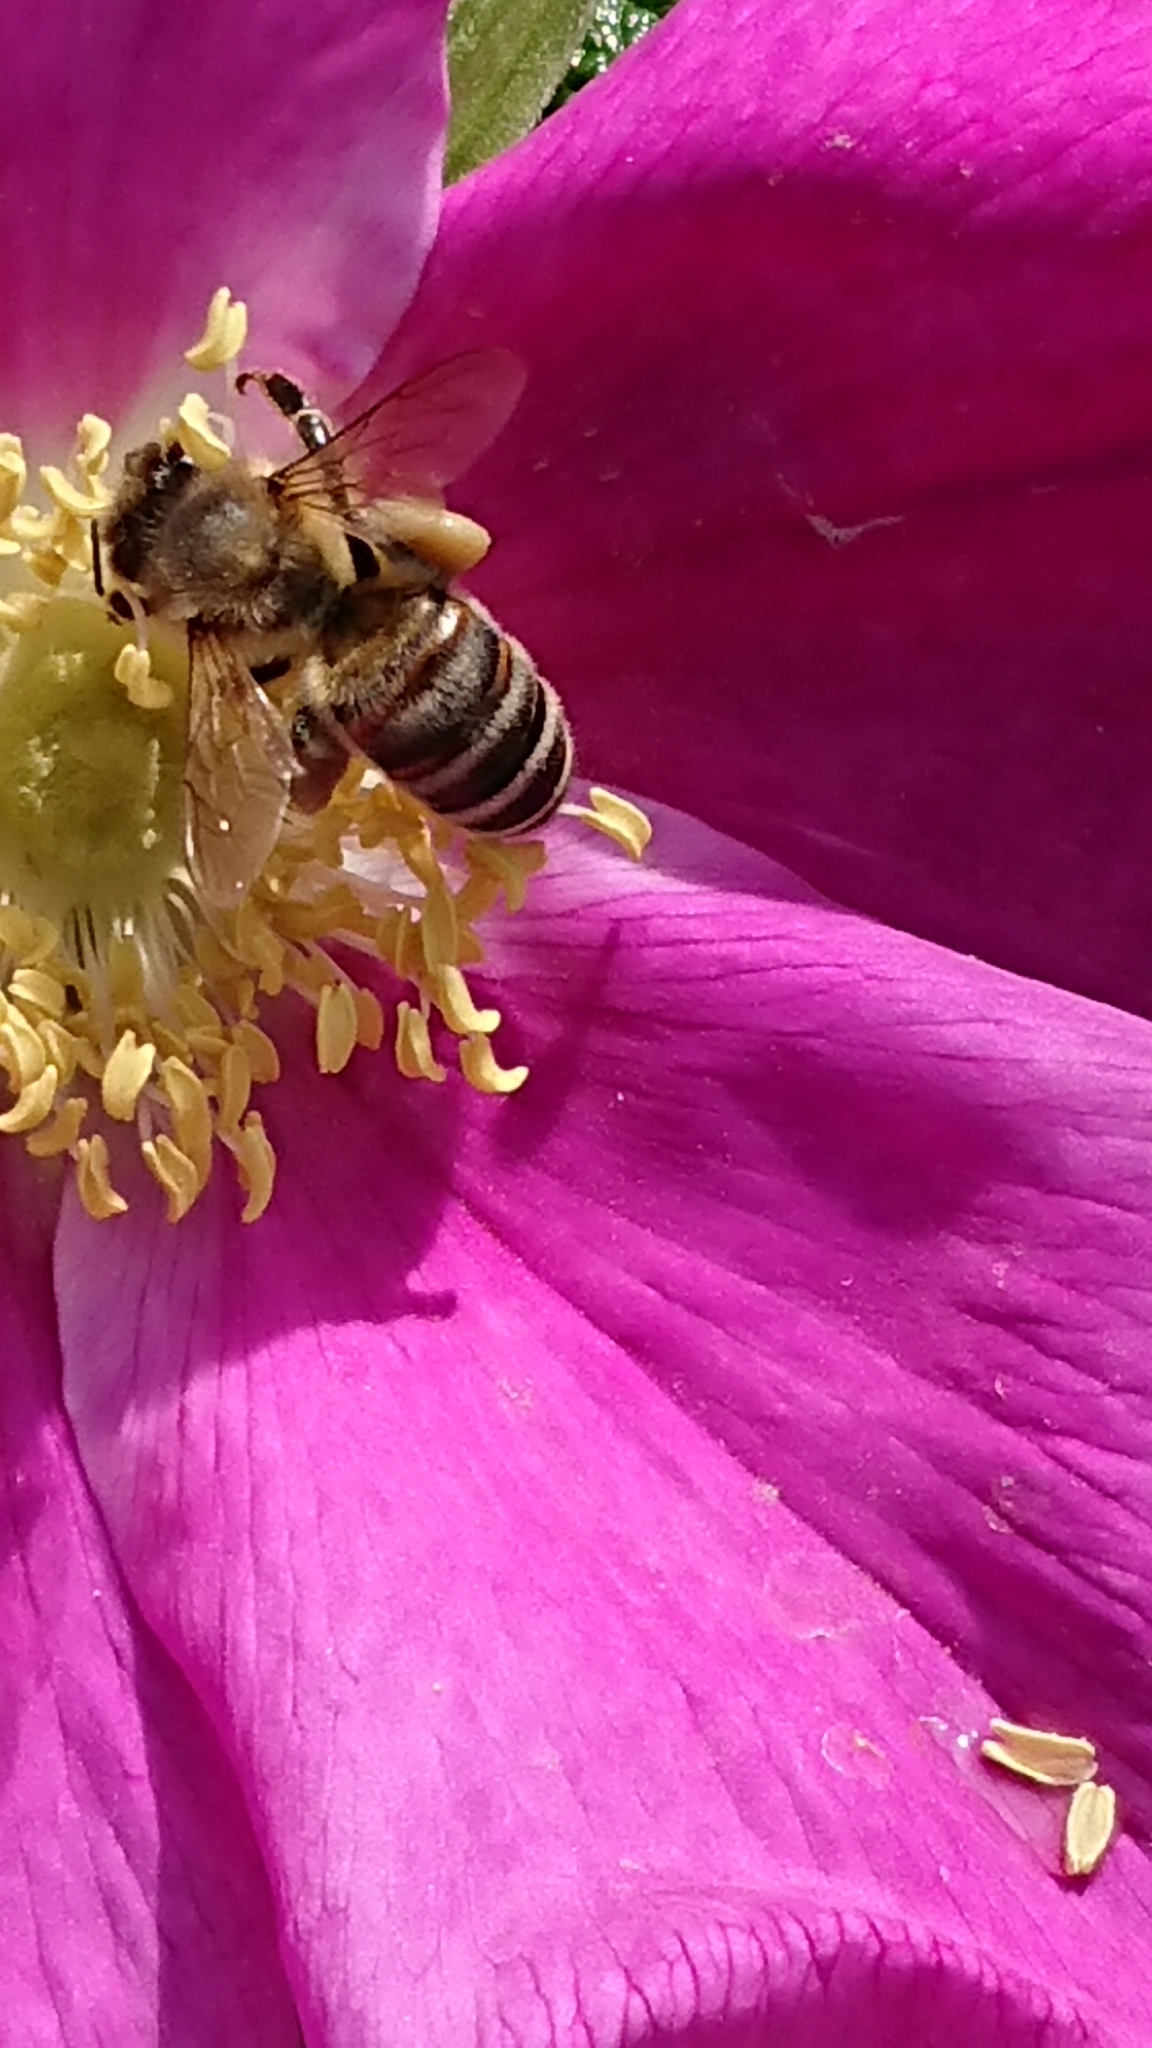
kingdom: Animalia
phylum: Arthropoda
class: Insecta
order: Hymenoptera
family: Apidae
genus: Apis
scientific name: Apis mellifera
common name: Honey bee
